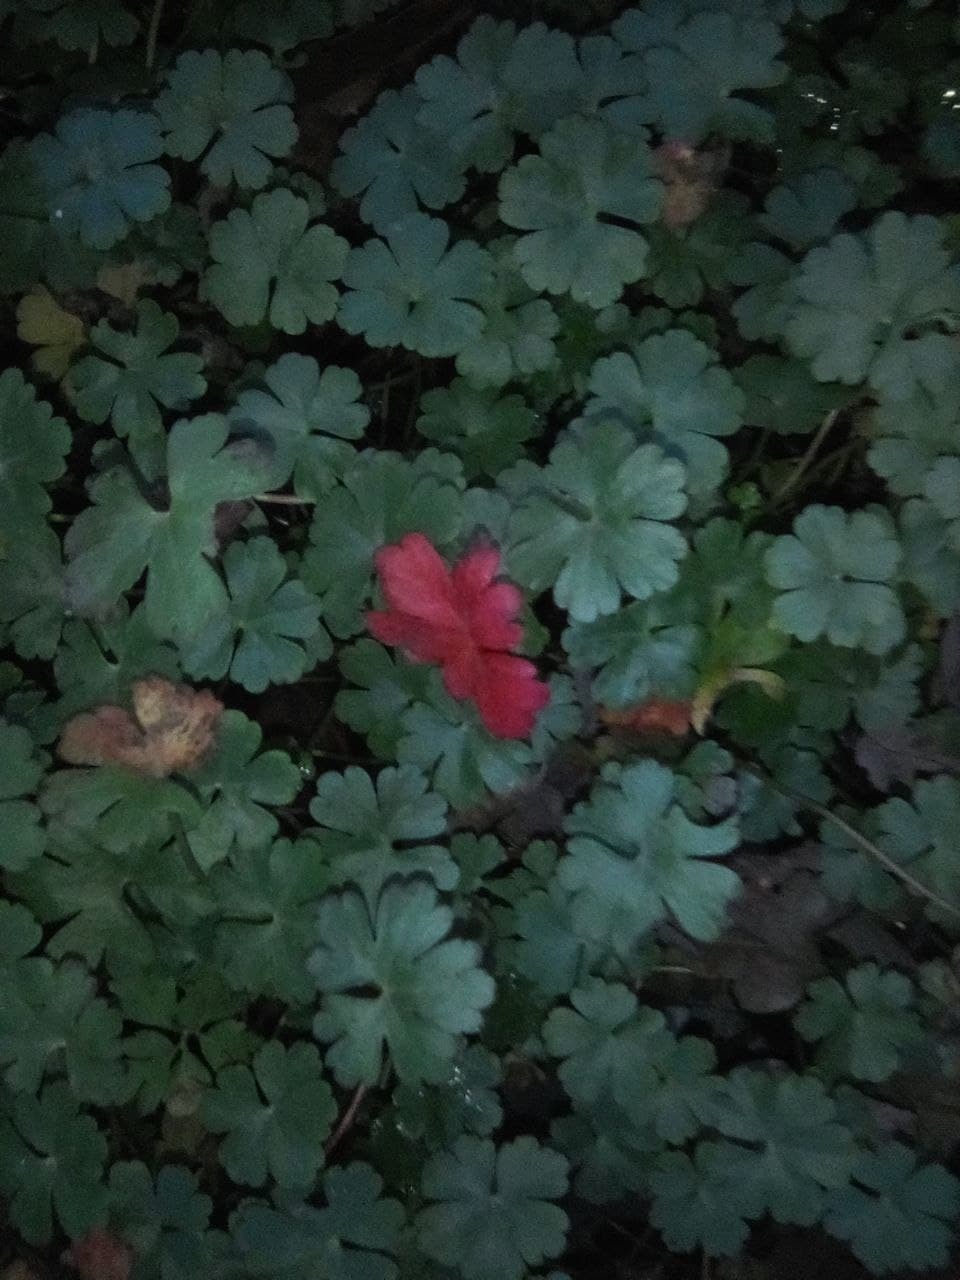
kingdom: Plantae
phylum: Tracheophyta
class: Magnoliopsida
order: Geraniales
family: Geraniaceae
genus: Geranium
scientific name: Geranium lucidum
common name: Shining crane's-bill
